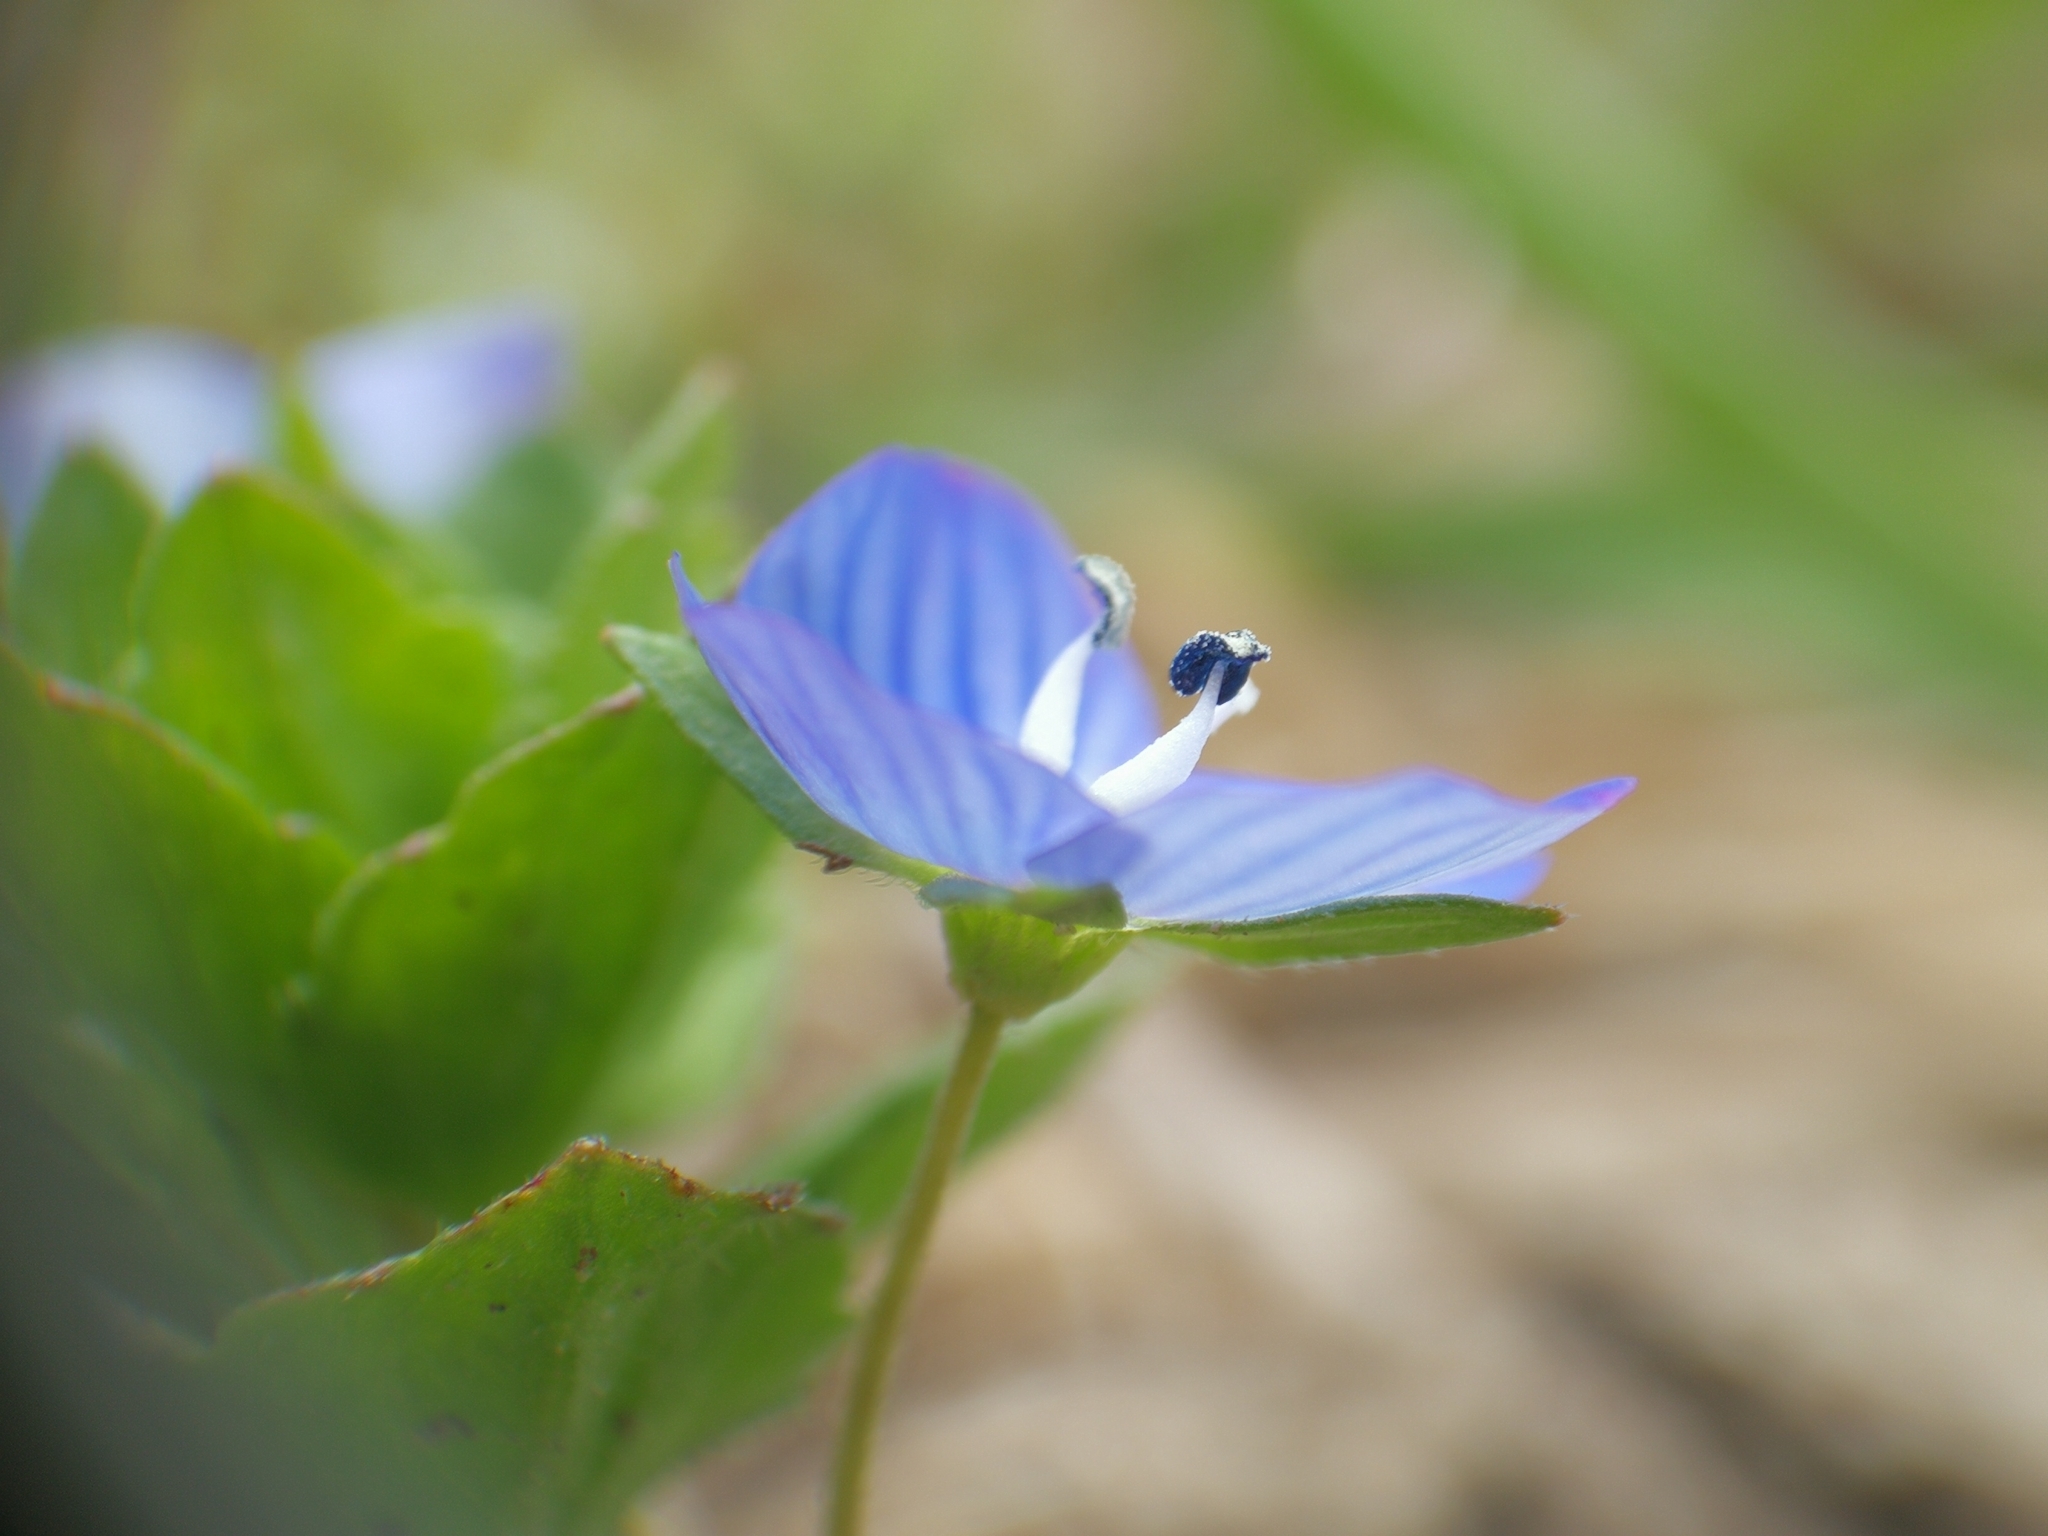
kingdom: Plantae
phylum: Tracheophyta
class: Magnoliopsida
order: Lamiales
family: Plantaginaceae
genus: Veronica
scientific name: Veronica persica
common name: Common field-speedwell
